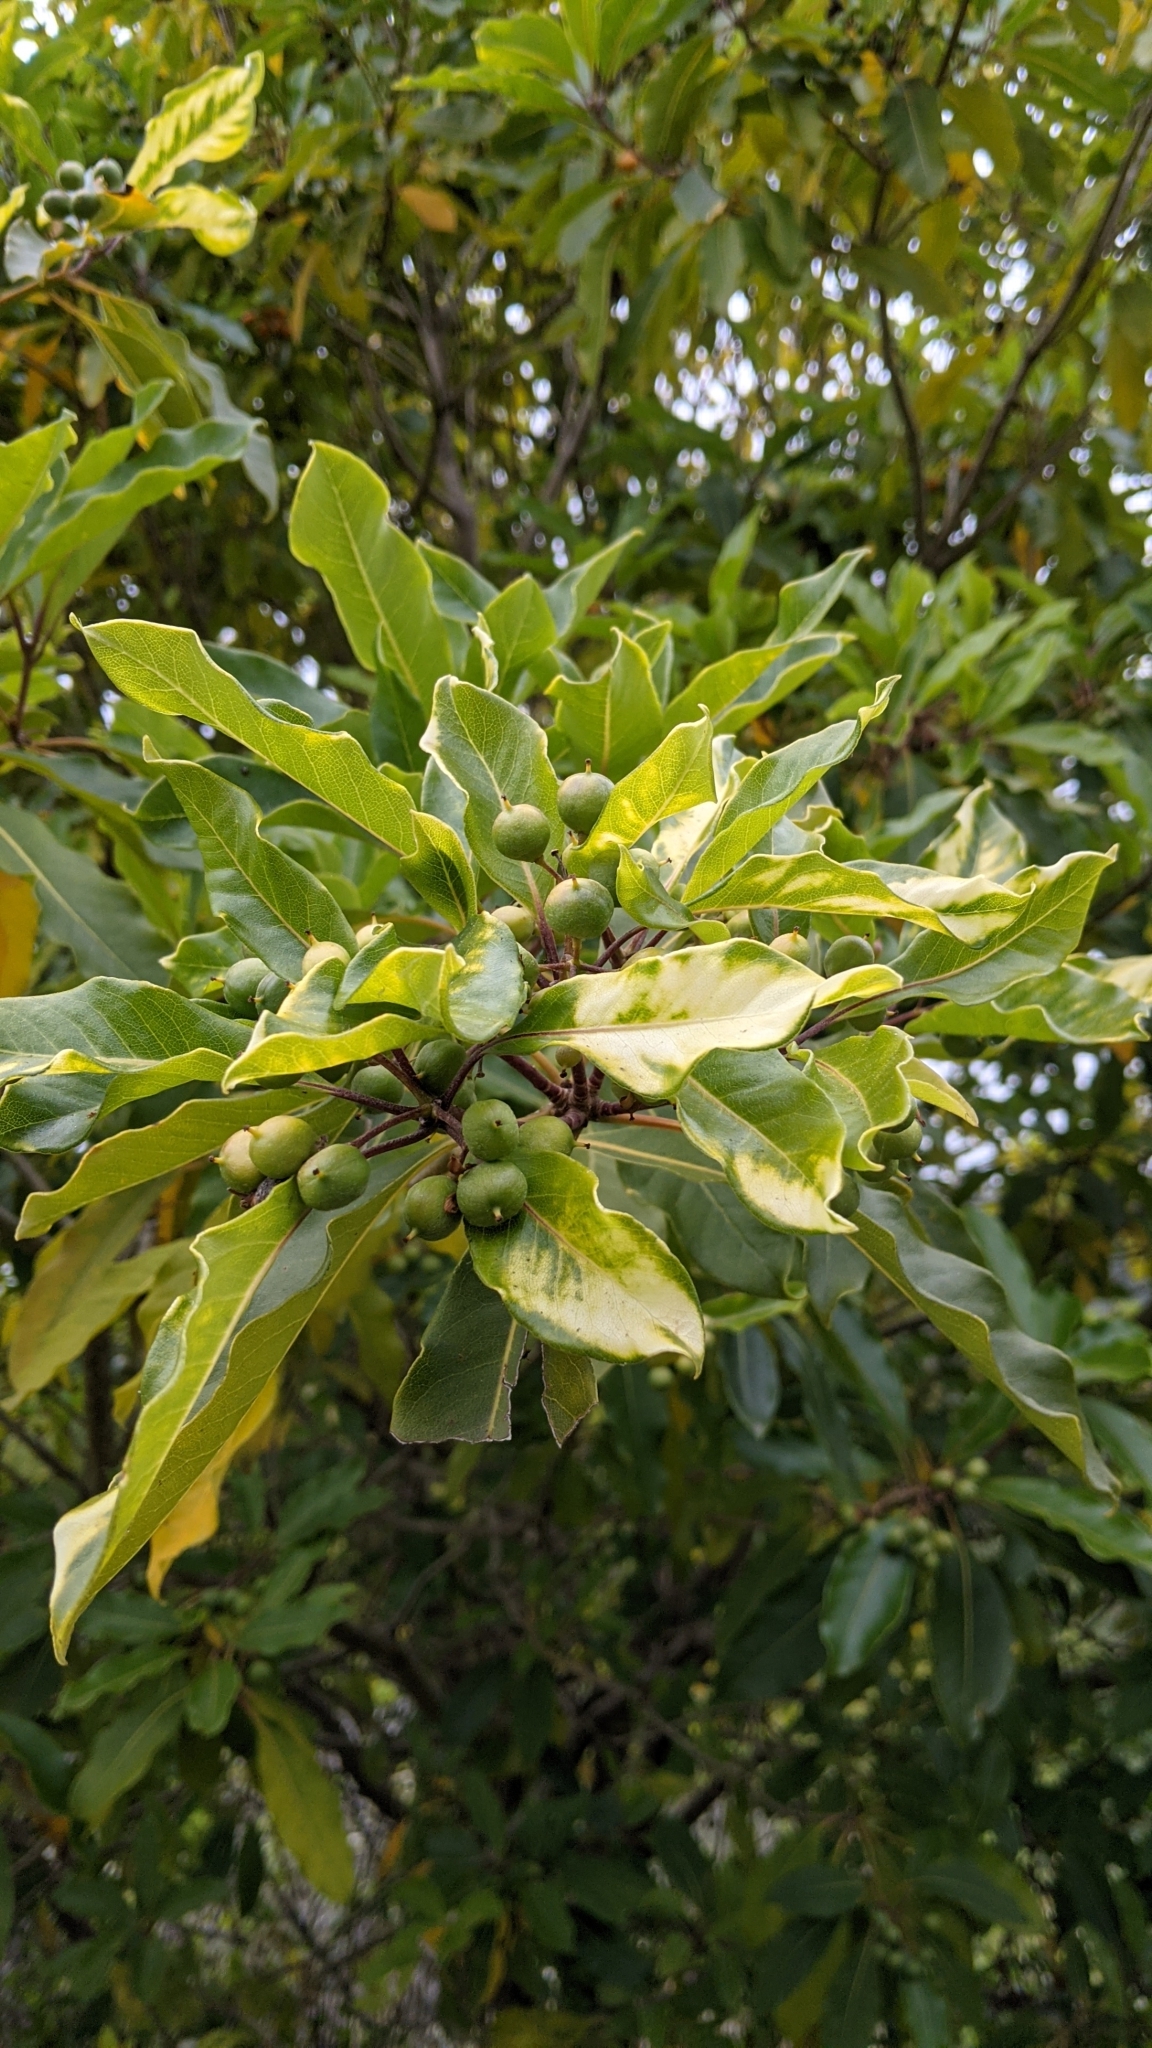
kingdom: Plantae
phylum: Tracheophyta
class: Magnoliopsida
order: Apiales
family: Pittosporaceae
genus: Pittosporum
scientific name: Pittosporum undulatum
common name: Australian cheesewood
